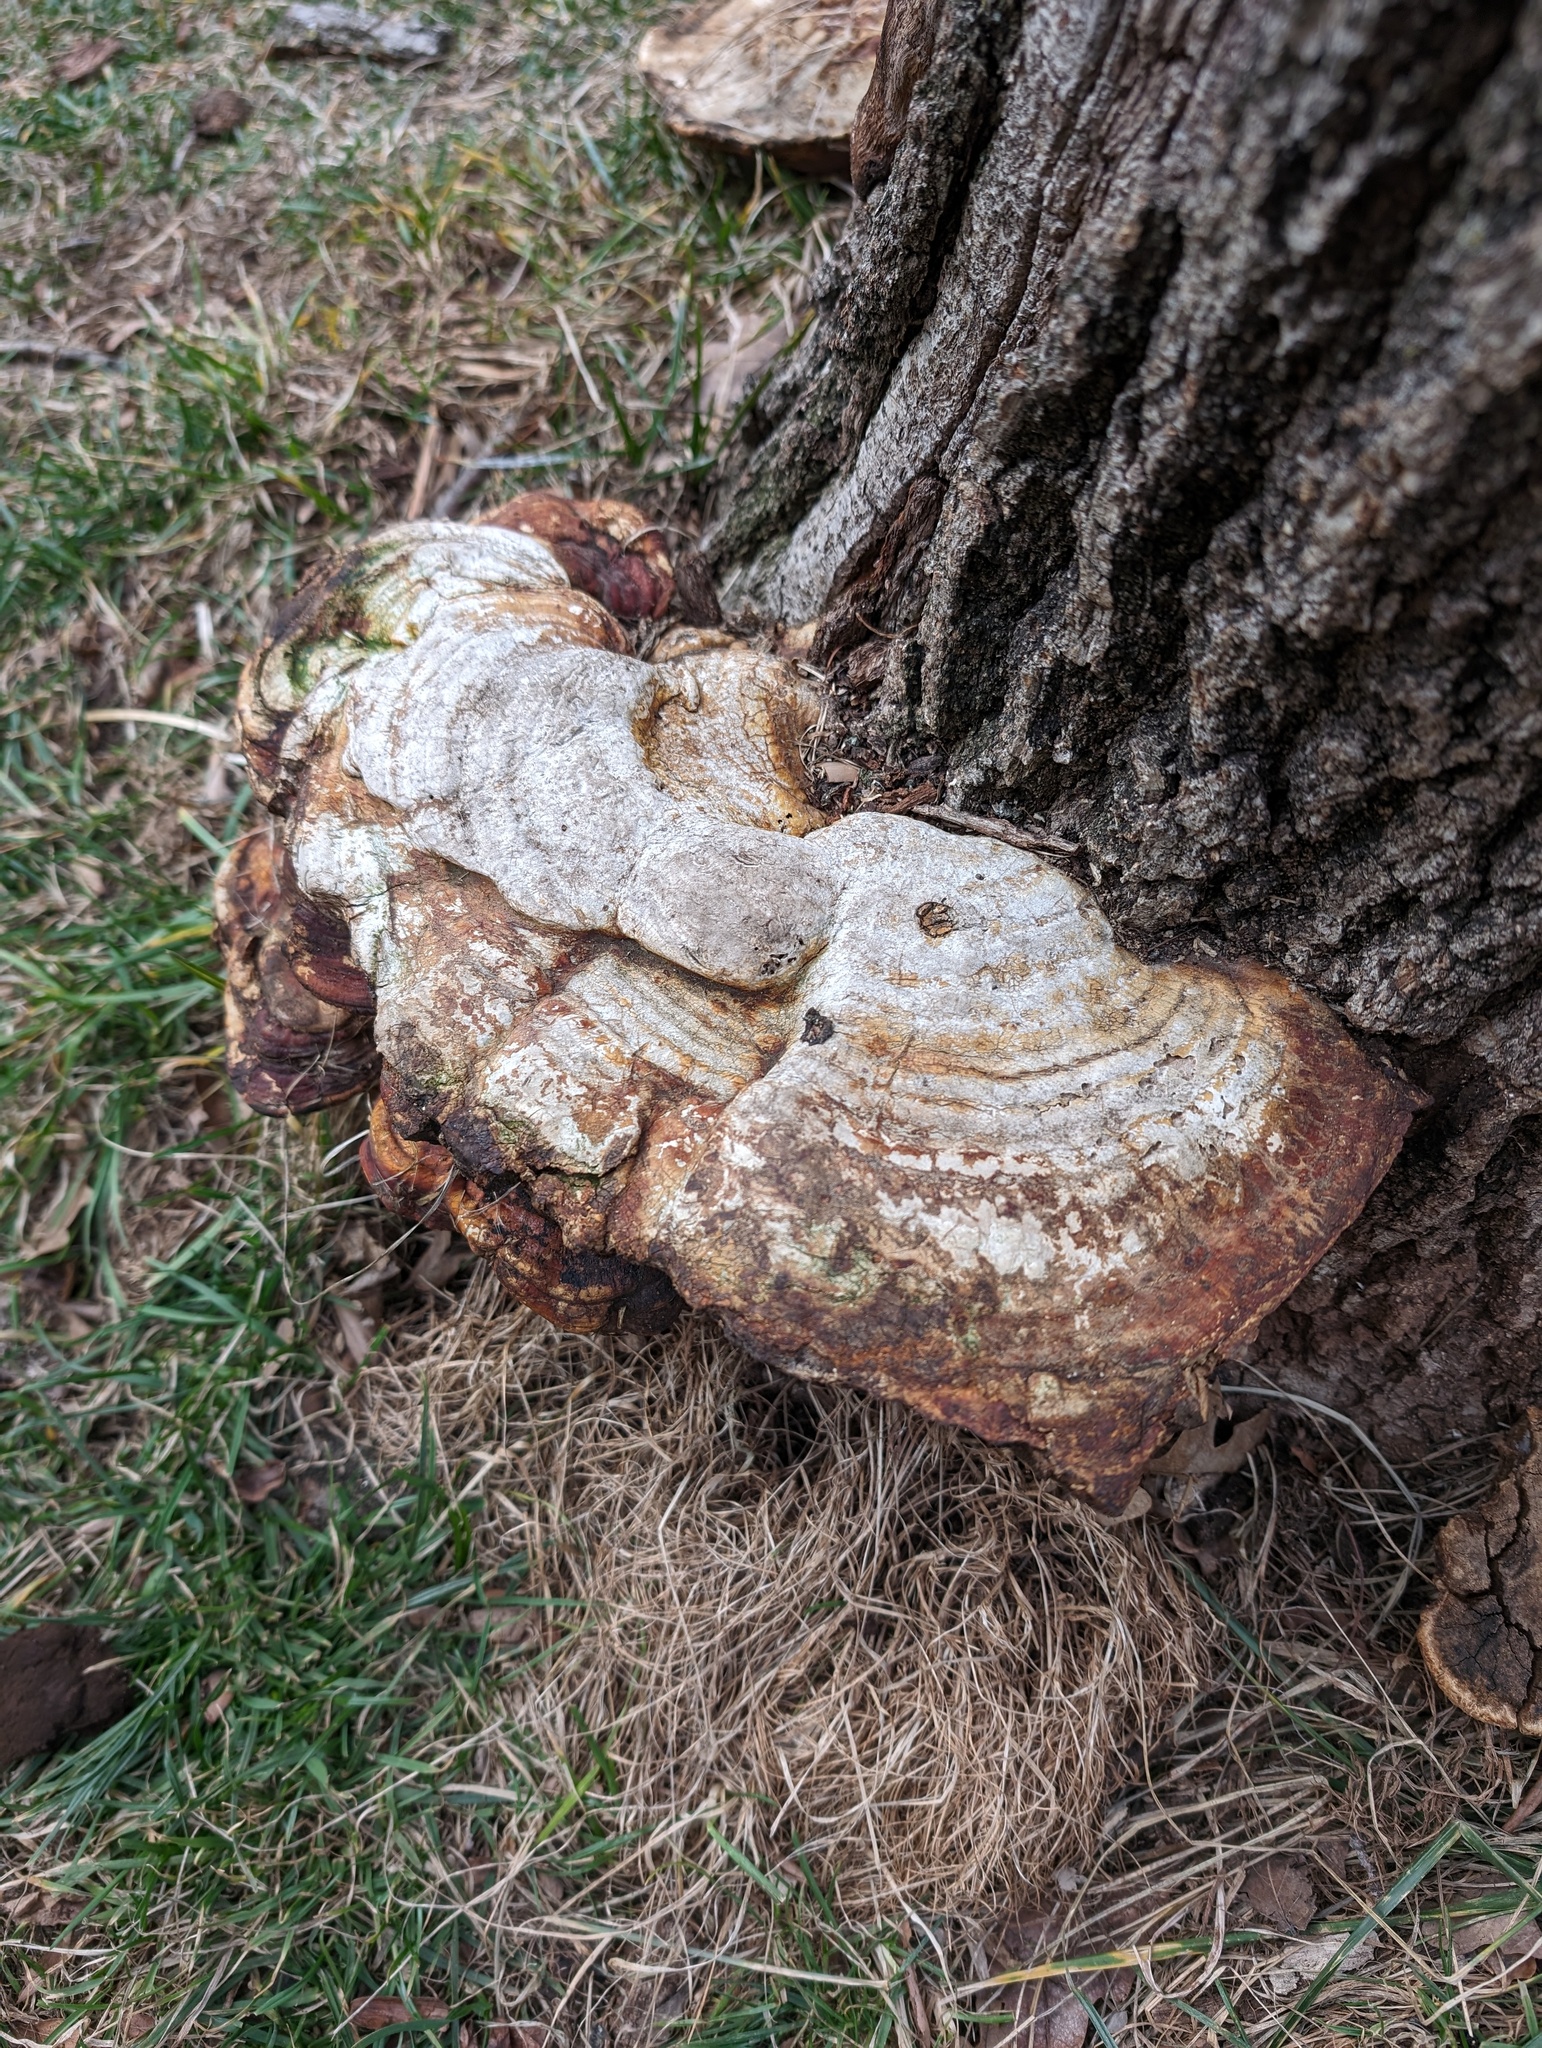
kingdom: Fungi
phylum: Basidiomycota
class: Agaricomycetes
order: Polyporales
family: Polyporaceae
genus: Ganoderma
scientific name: Ganoderma resinaceum
